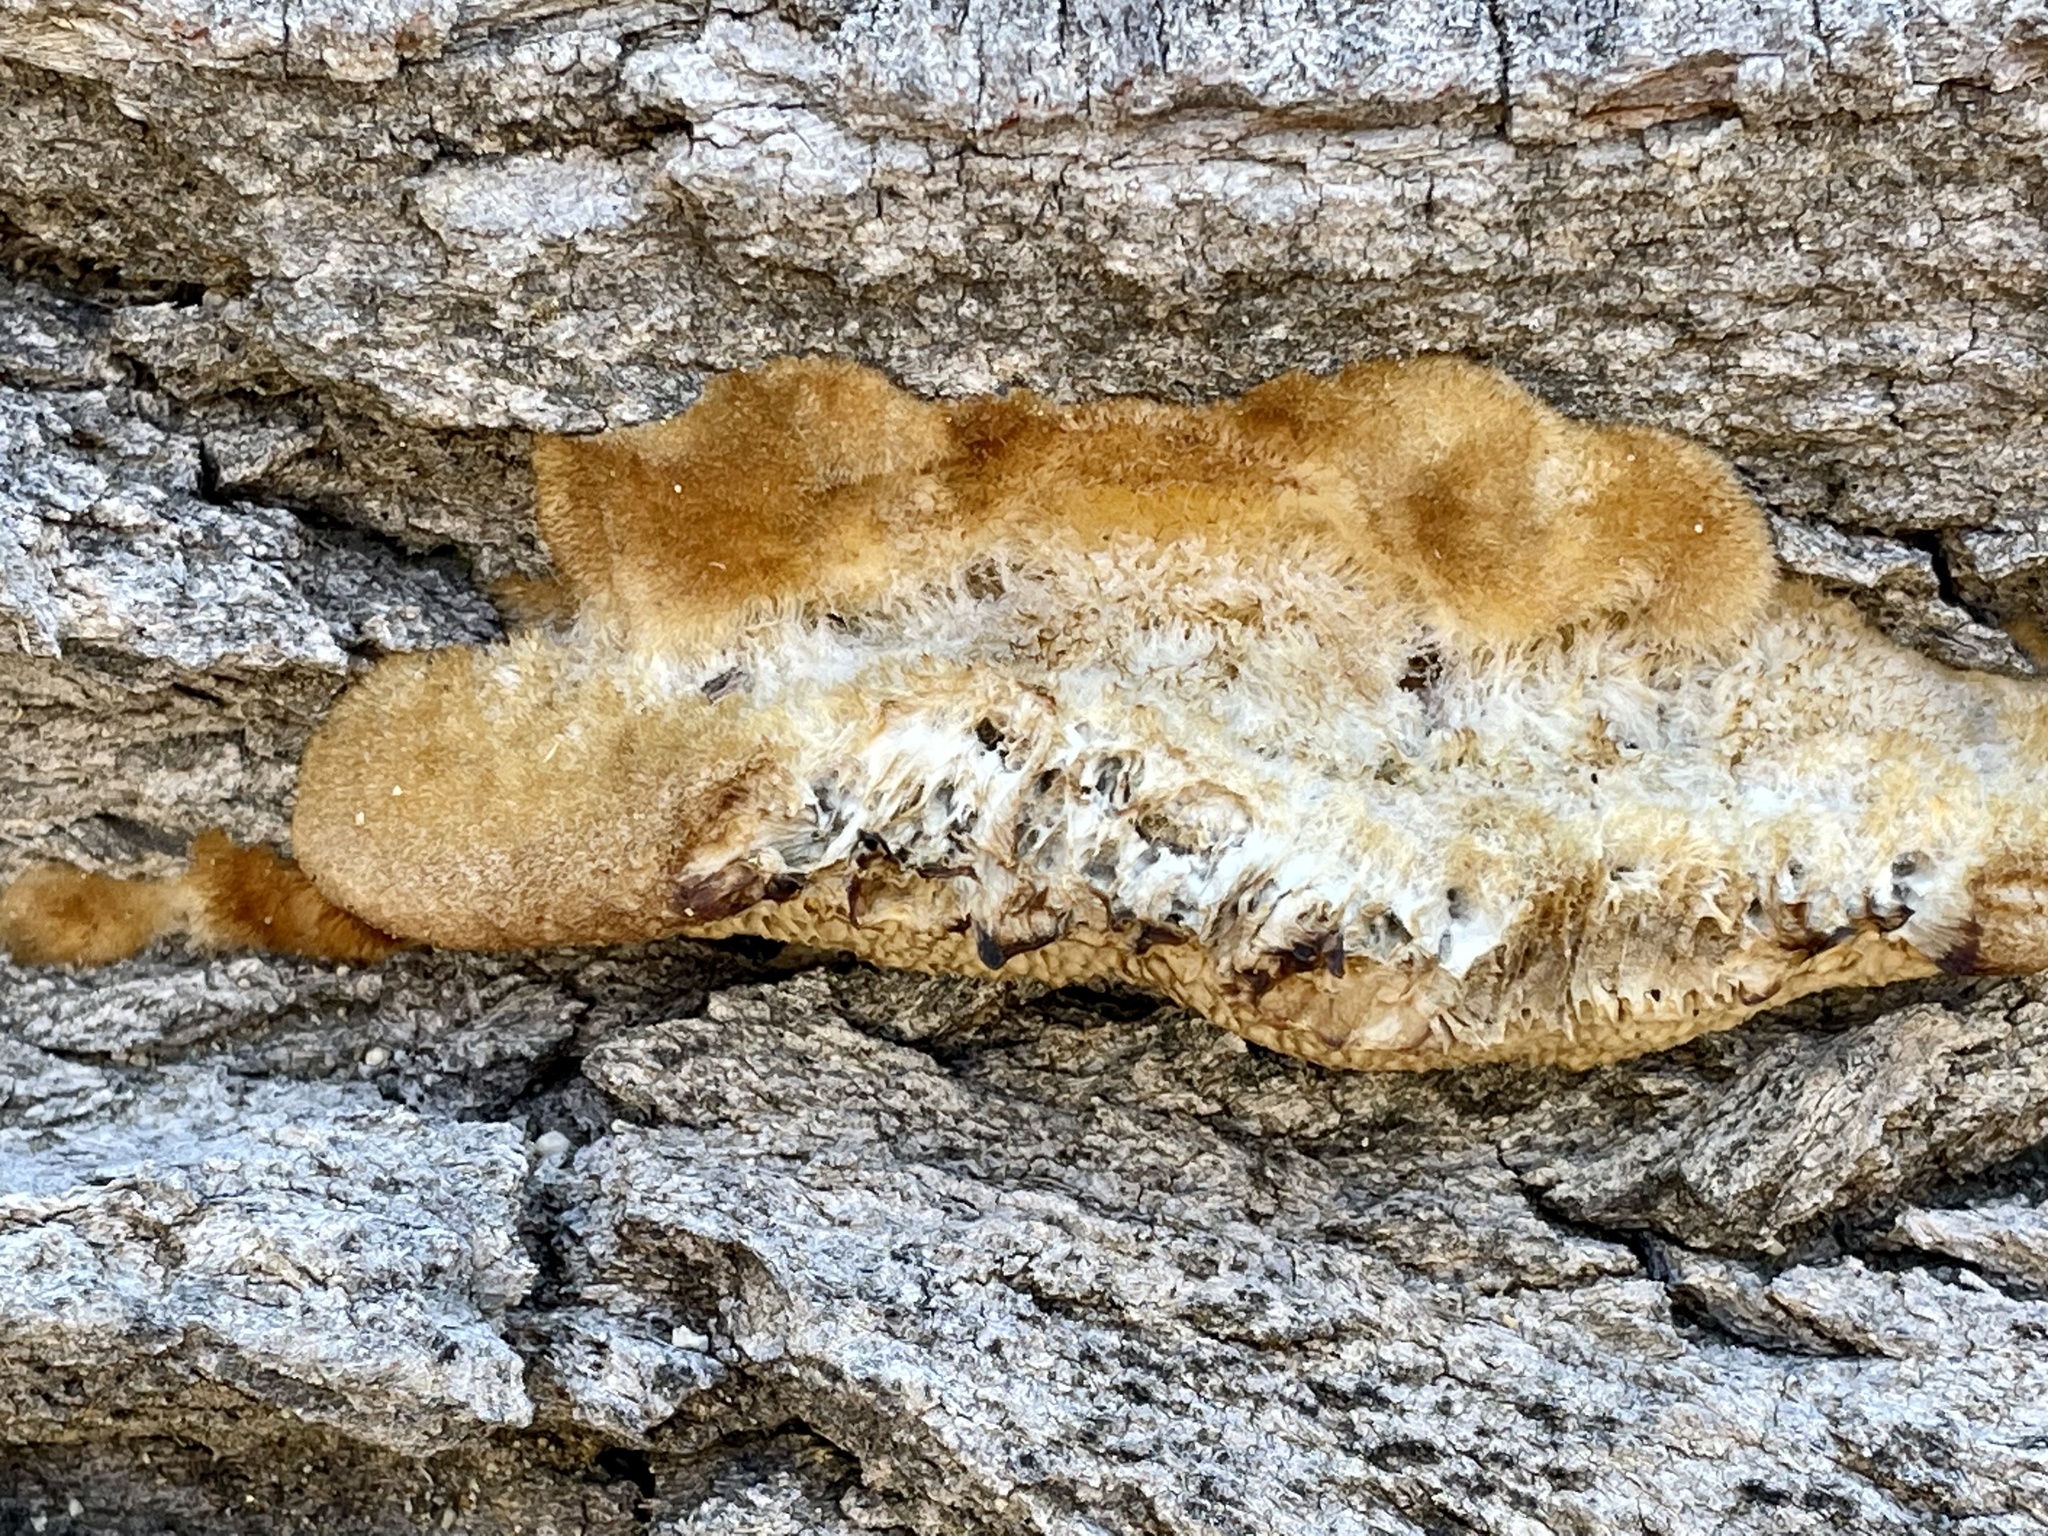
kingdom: Fungi
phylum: Basidiomycota
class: Agaricomycetes
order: Polyporales
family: Polyporaceae
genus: Coriolopsis
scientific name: Coriolopsis gallica
